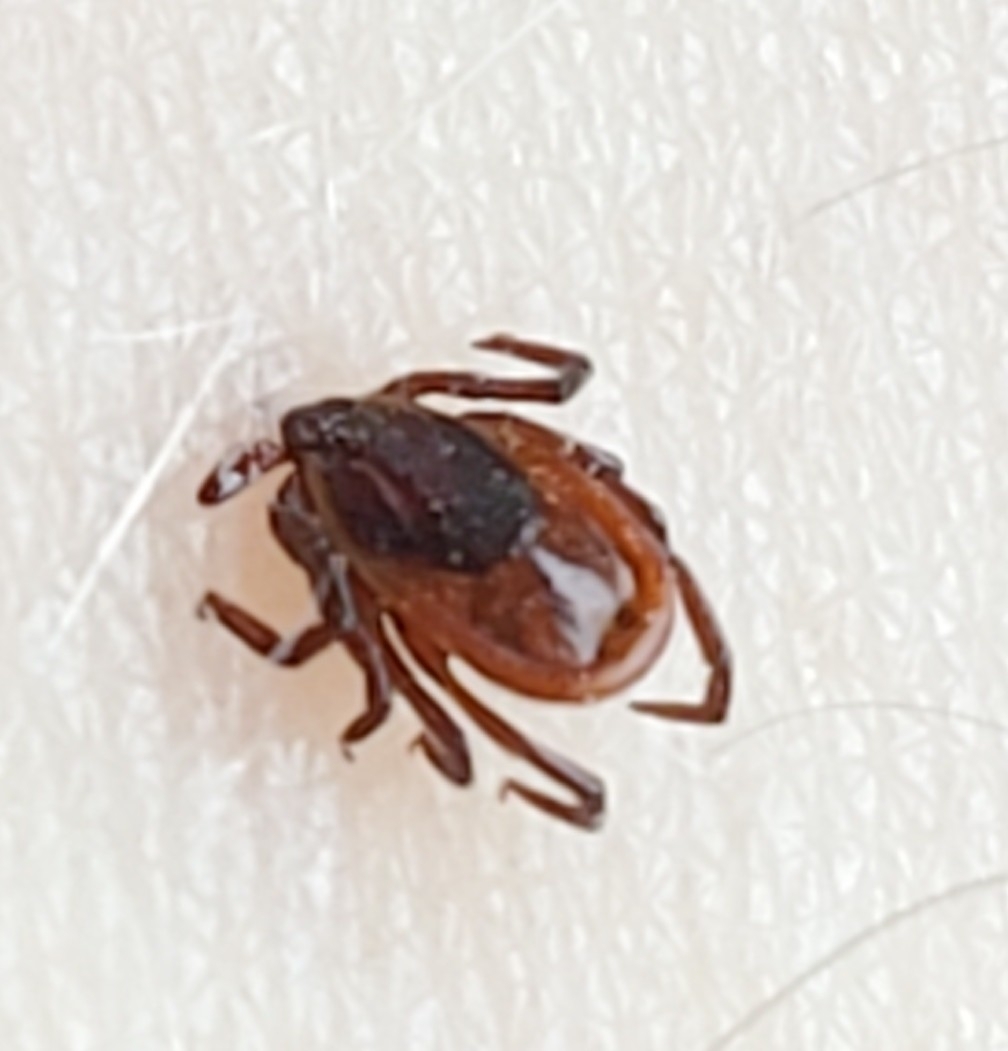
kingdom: Animalia
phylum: Arthropoda
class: Arachnida
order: Ixodida
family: Ixodidae
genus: Ixodes
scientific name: Ixodes scapularis
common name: Black legged tick
